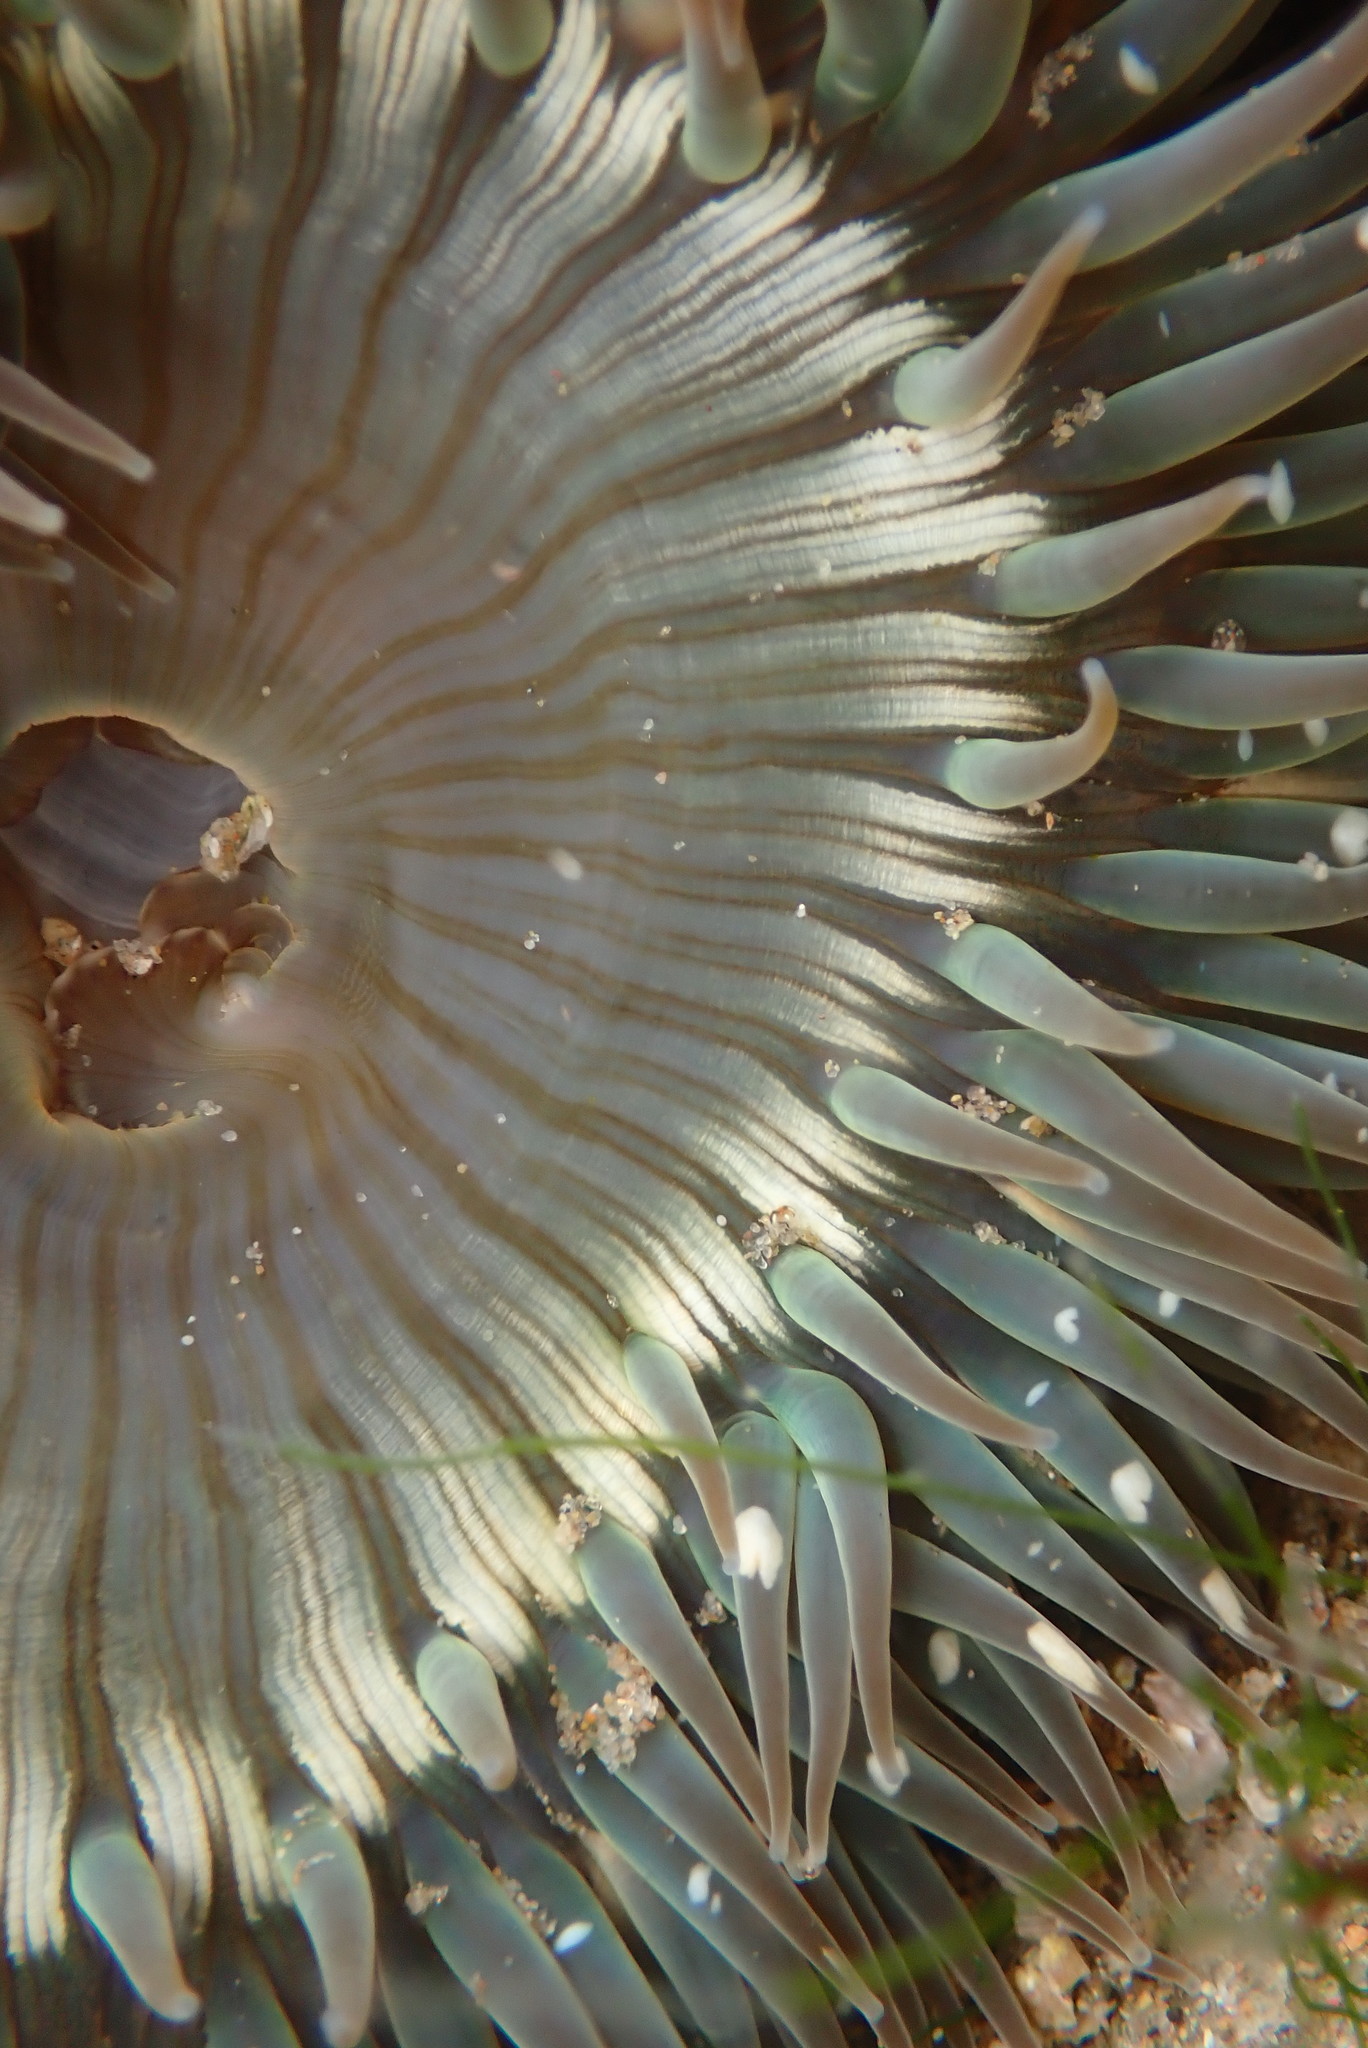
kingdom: Animalia
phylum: Cnidaria
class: Anthozoa
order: Actiniaria
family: Actiniidae
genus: Anthopleura
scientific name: Anthopleura sola
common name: Sun anemone
